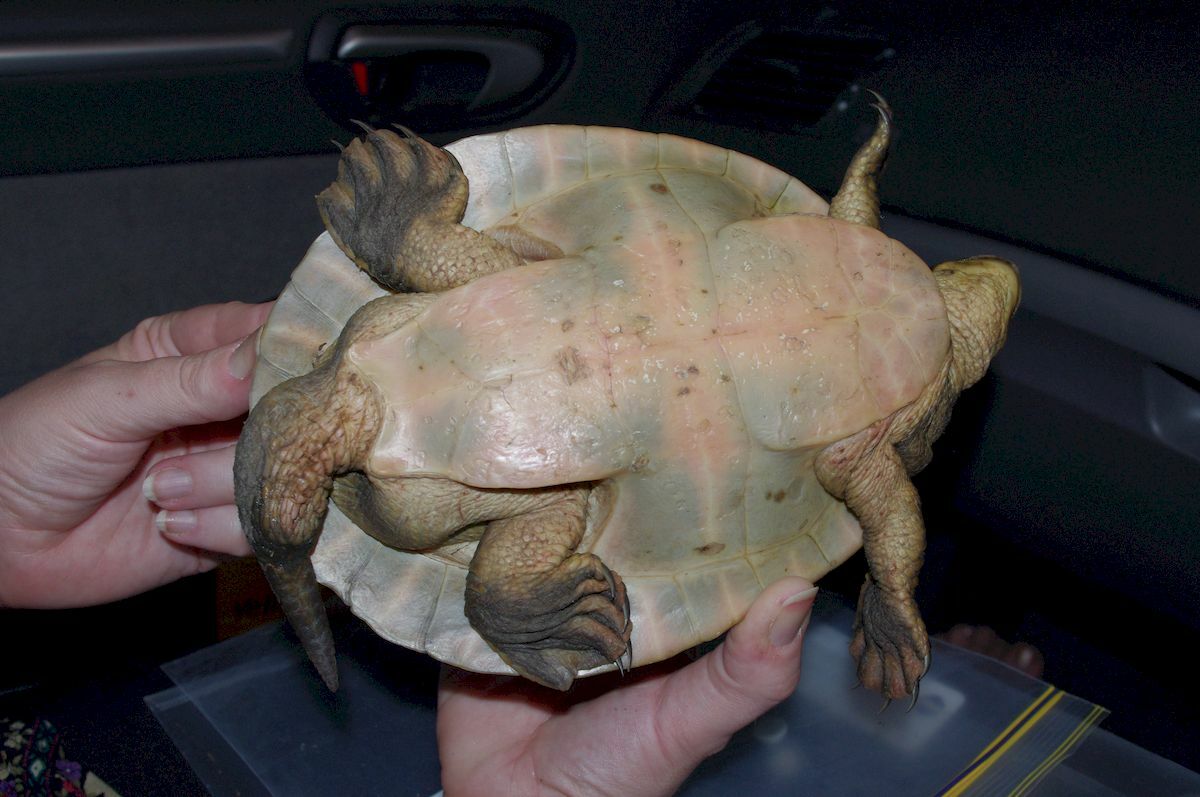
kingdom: Animalia
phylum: Chordata
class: Testudines
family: Chelidae
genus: Emydura
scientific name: Emydura macquarii
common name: Murray river turtle
